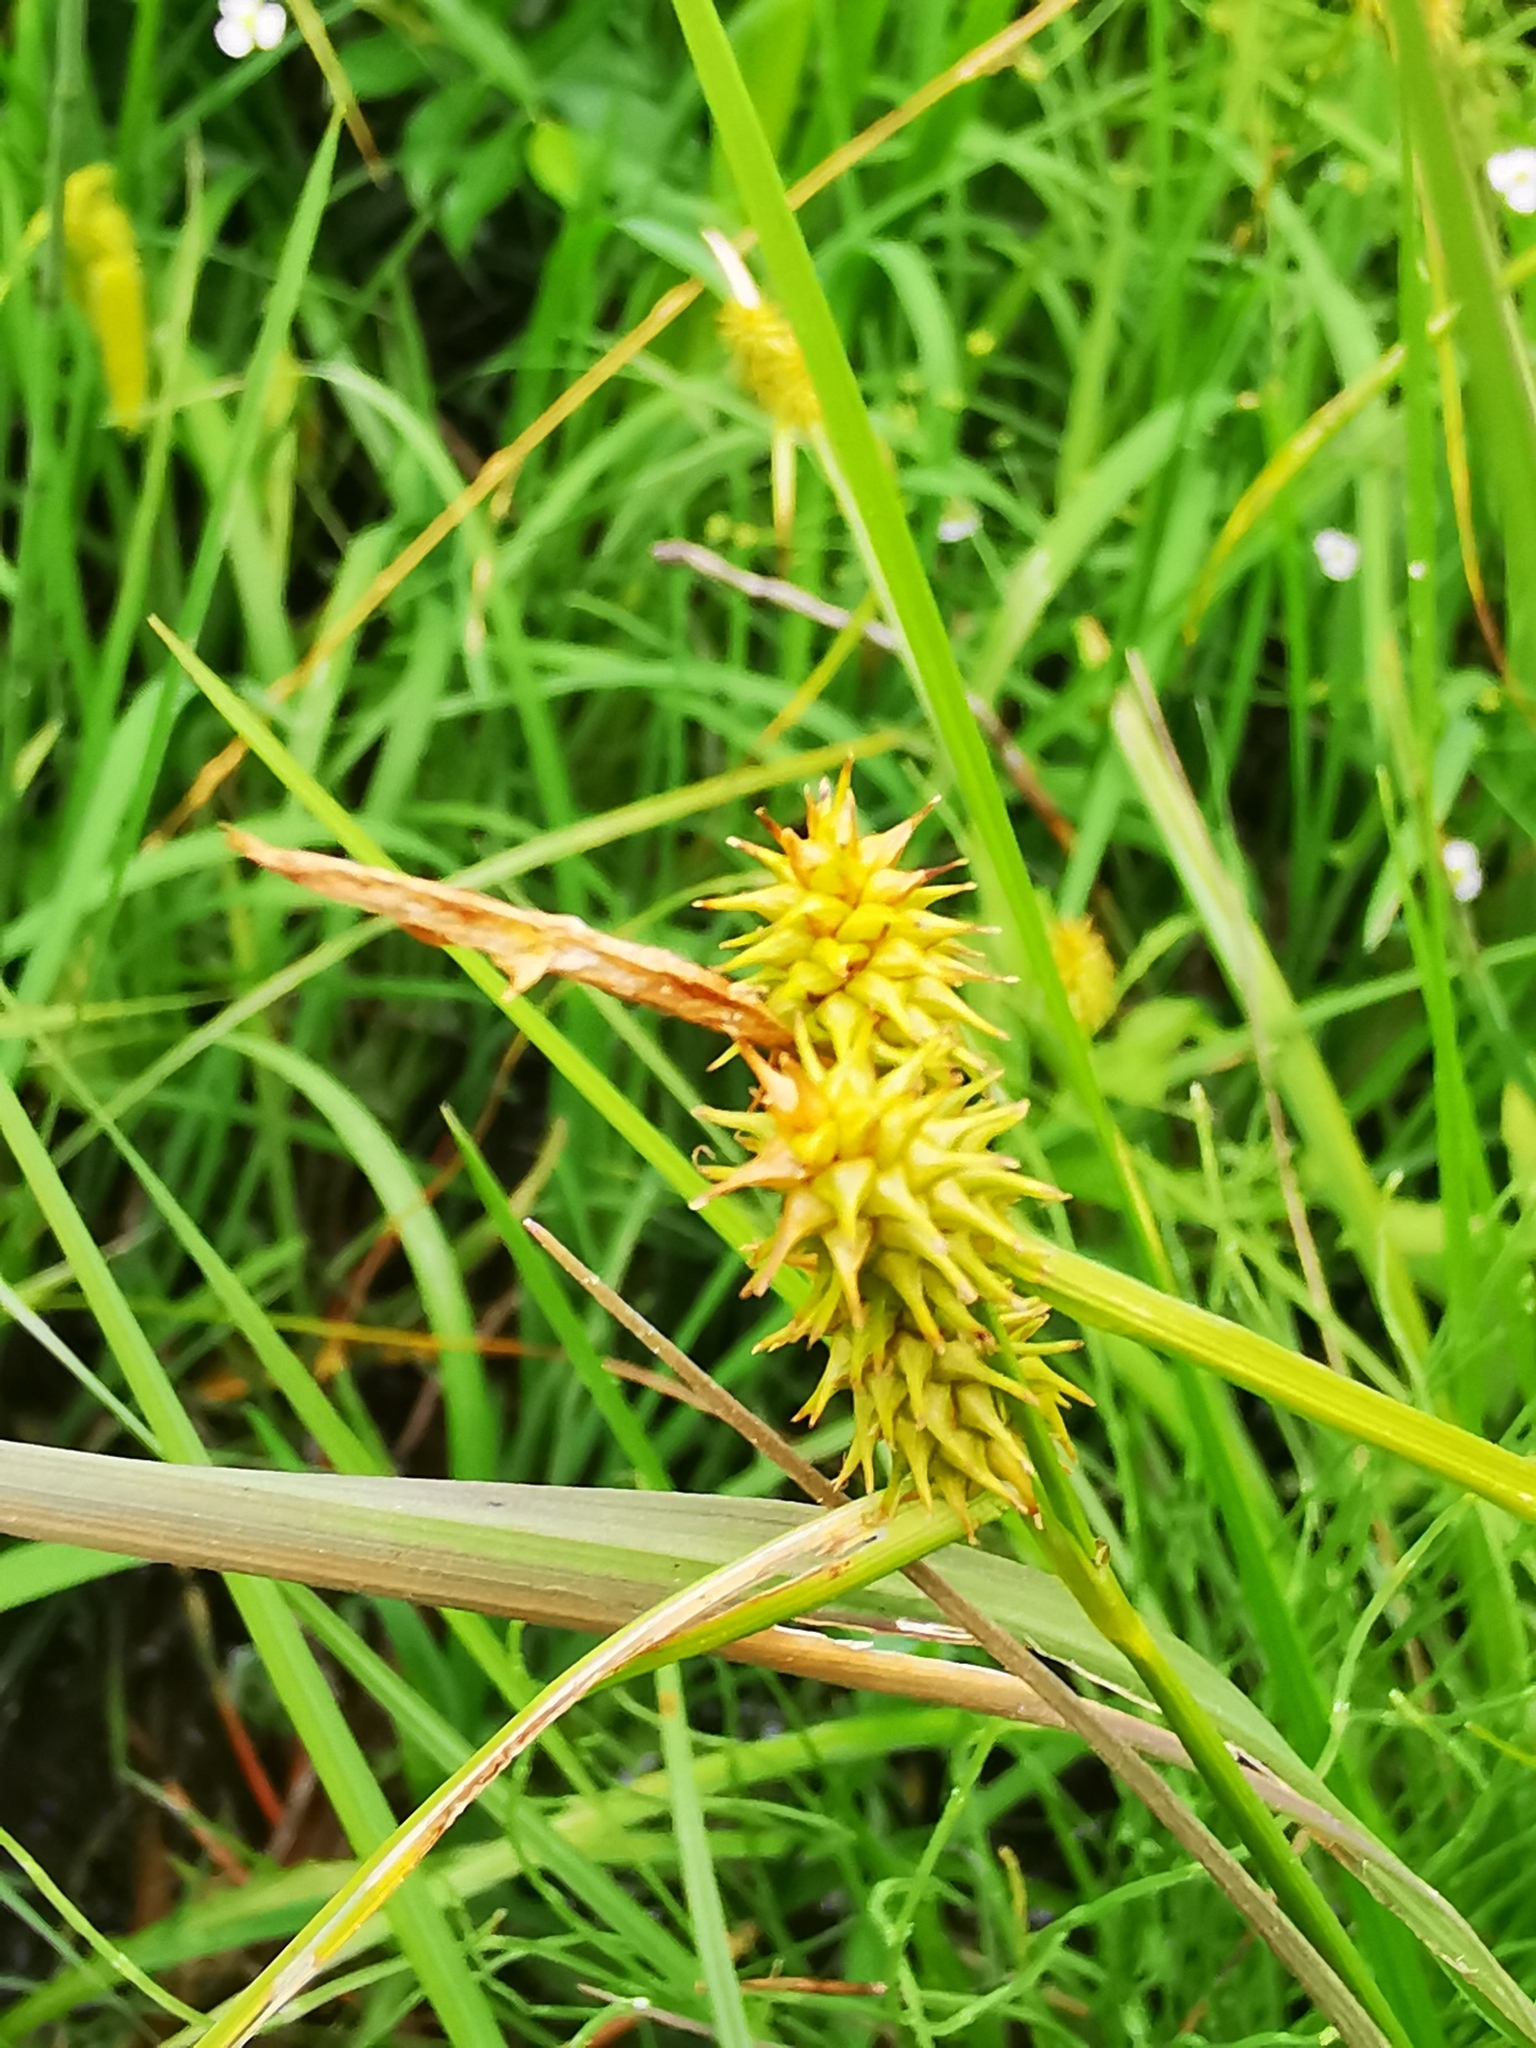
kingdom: Plantae
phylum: Tracheophyta
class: Liliopsida
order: Poales
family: Cyperaceae
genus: Carex
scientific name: Carex flava
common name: Large yellow-sedge
